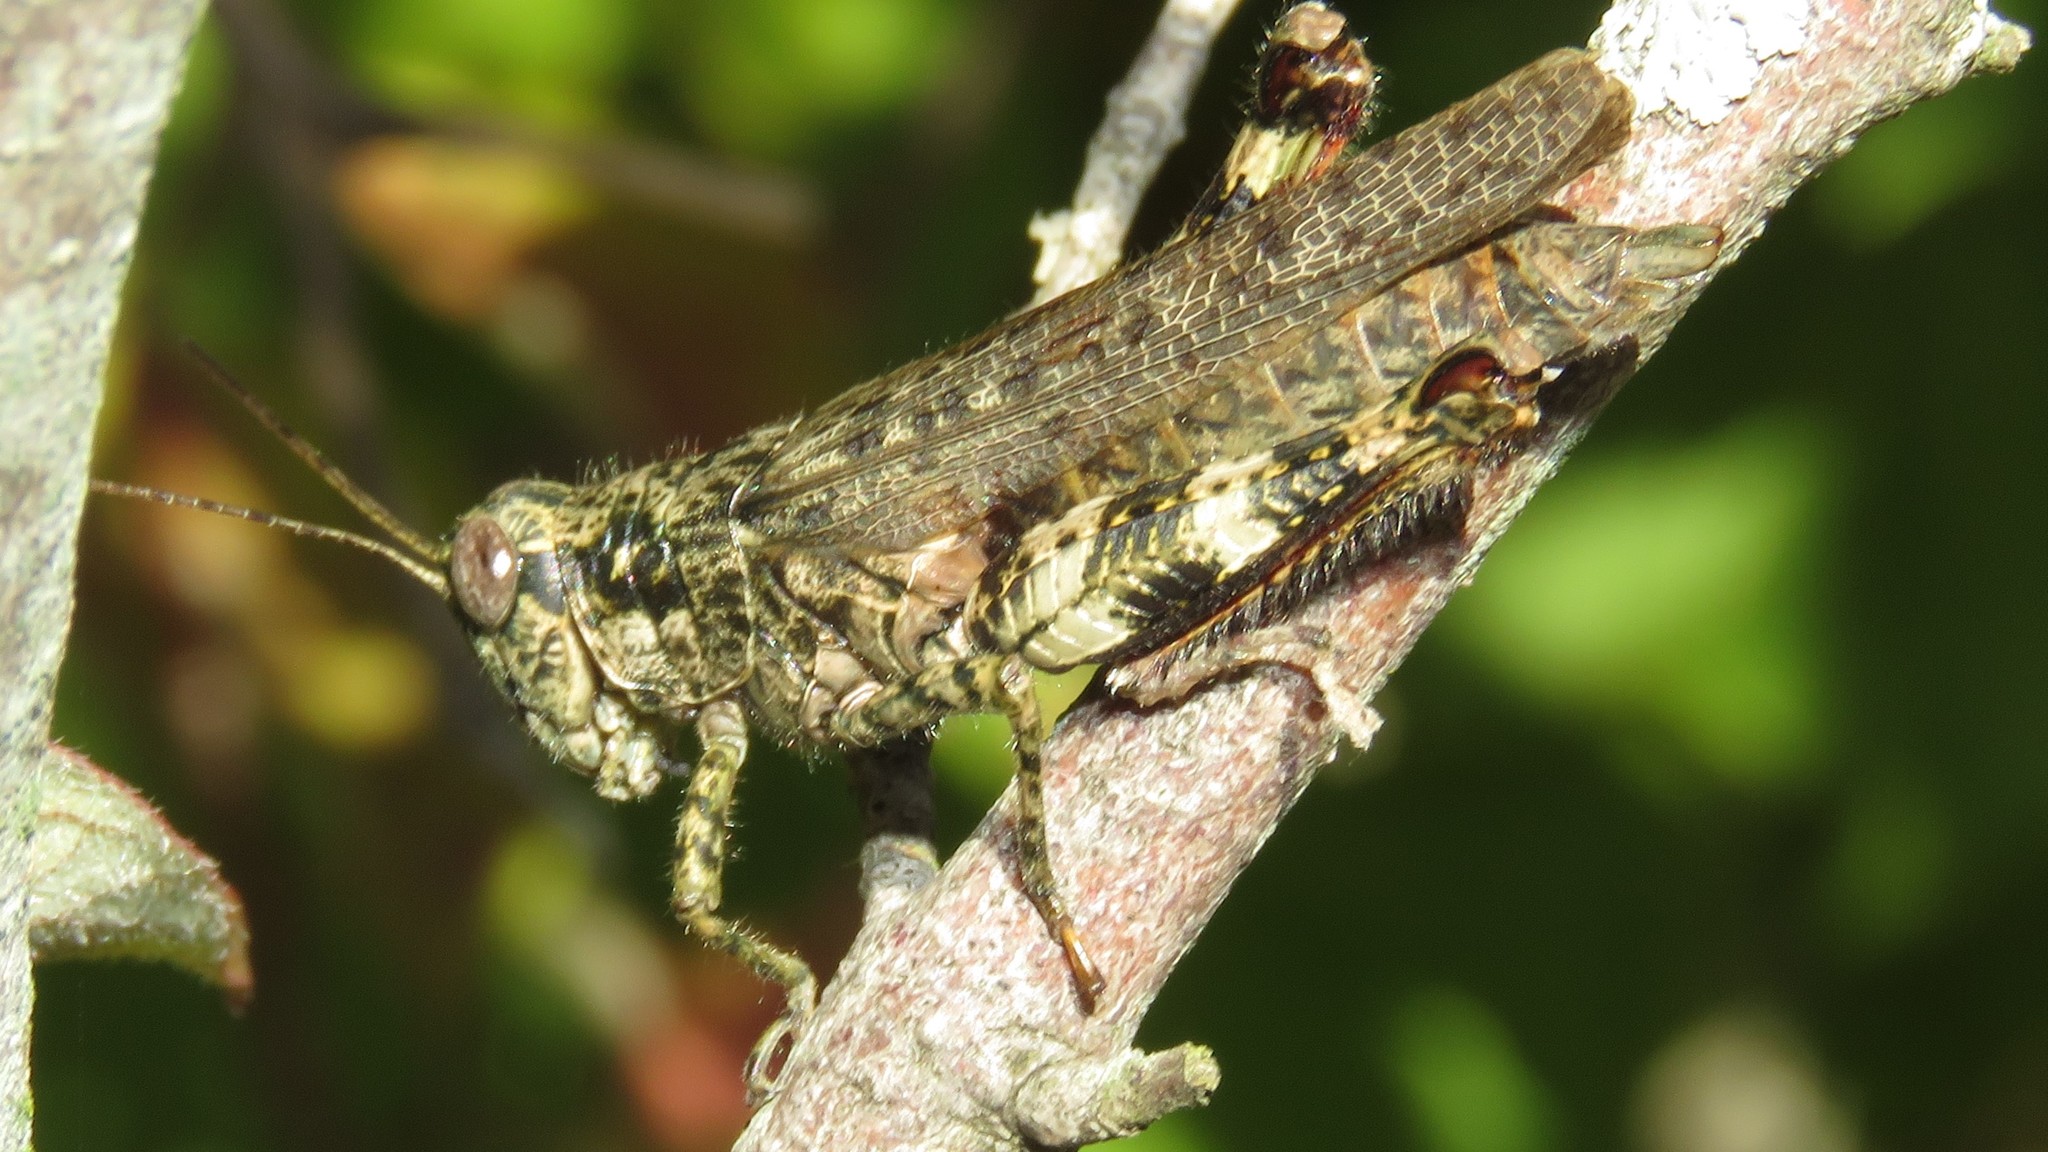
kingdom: Animalia
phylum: Arthropoda
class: Insecta
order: Orthoptera
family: Acrididae
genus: Melanoplus
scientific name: Melanoplus punctulatus
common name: Pine-tree spur-throat grasshopper
